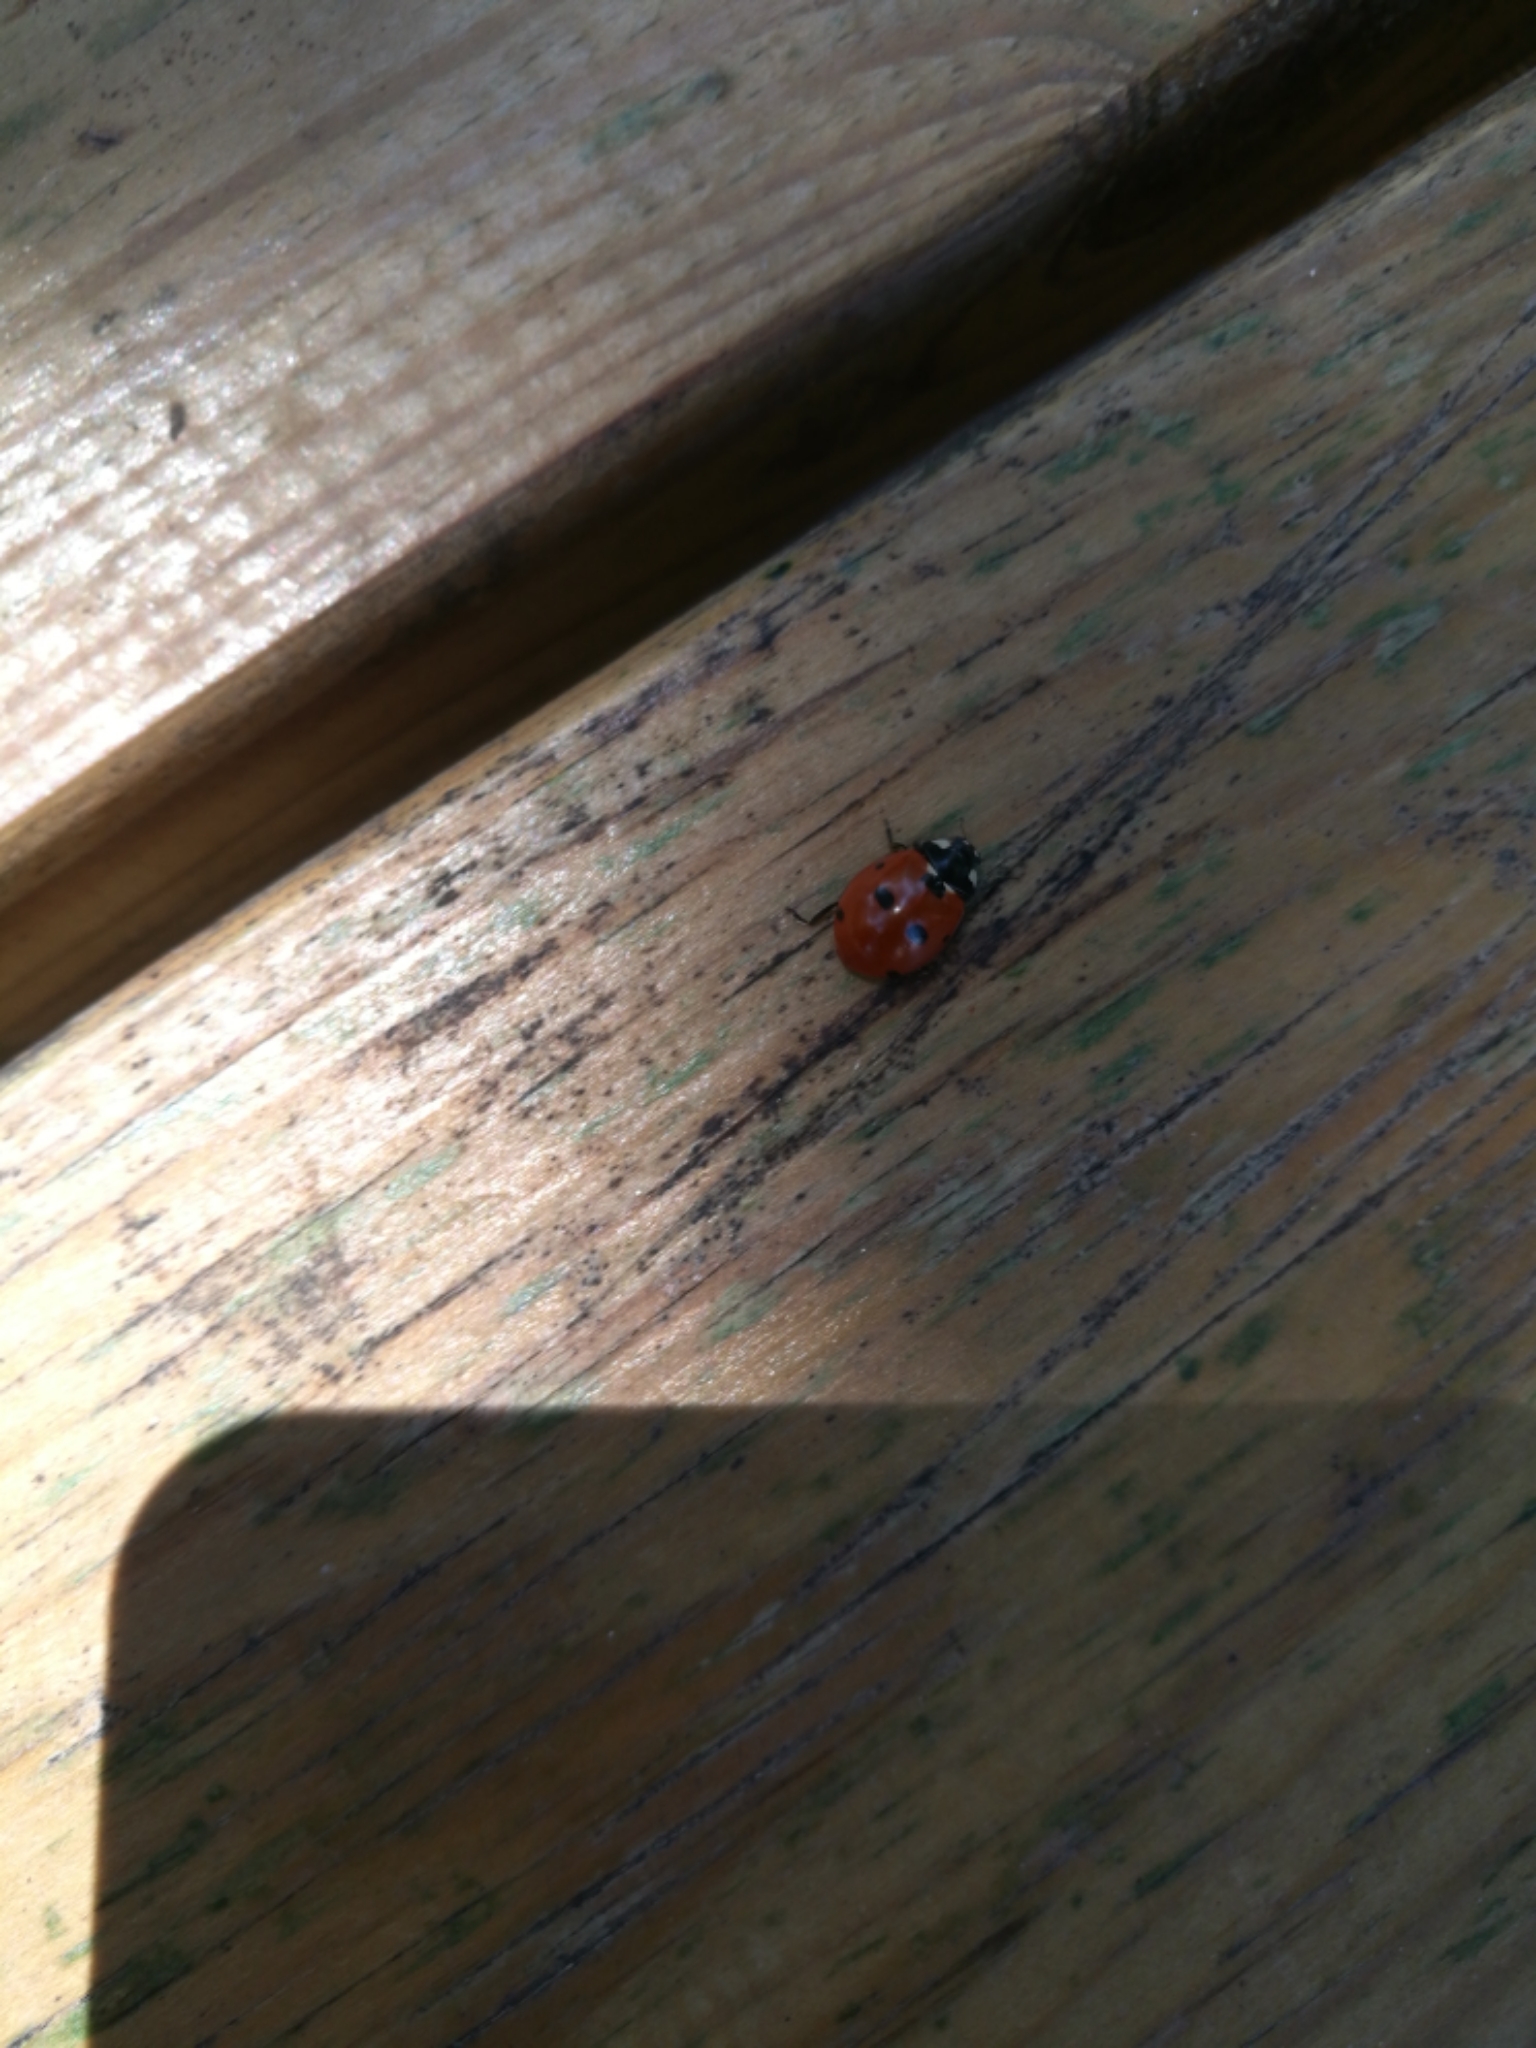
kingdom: Animalia
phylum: Arthropoda
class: Insecta
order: Coleoptera
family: Coccinellidae
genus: Coccinella
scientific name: Coccinella septempunctata
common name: Sevenspotted lady beetle
